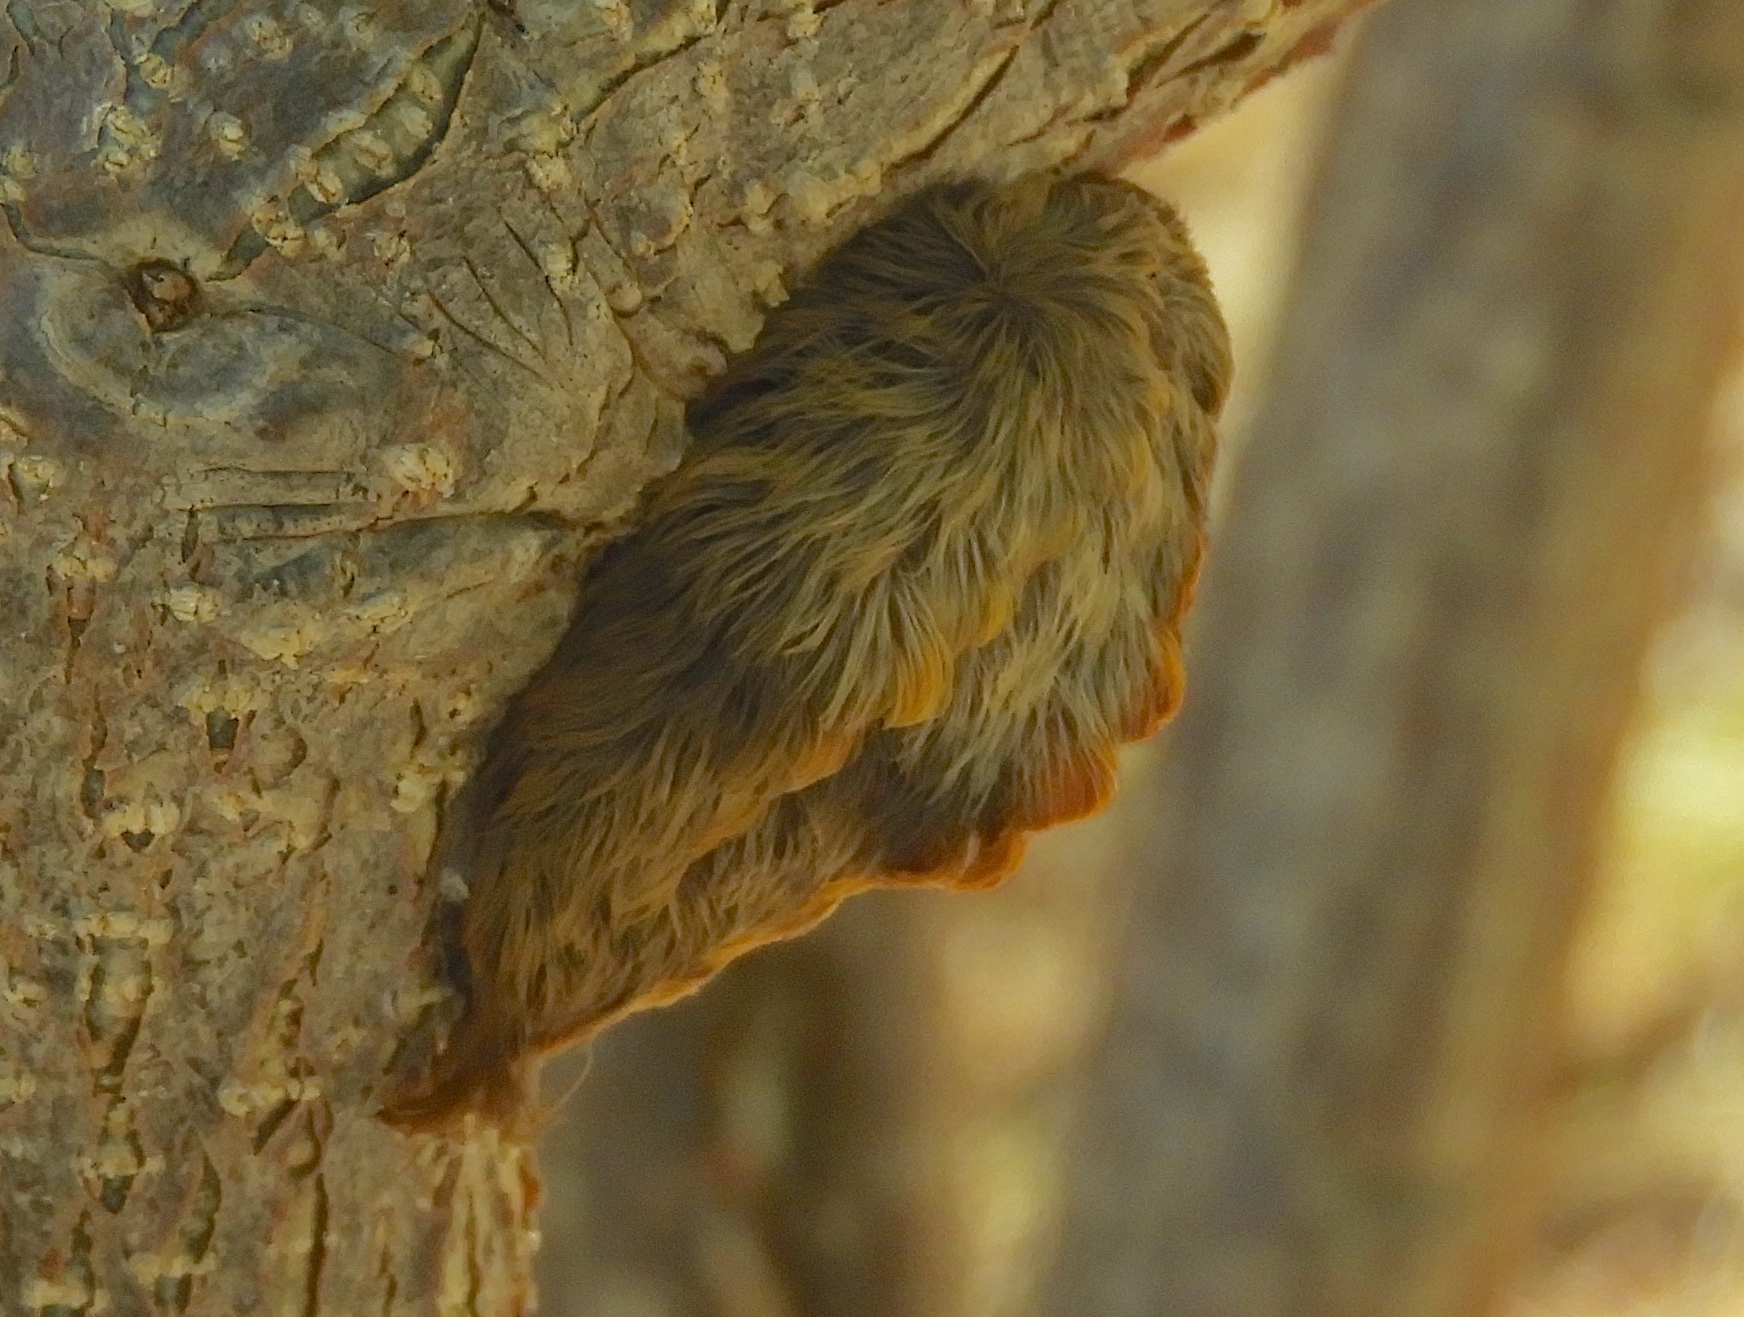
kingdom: Animalia
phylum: Arthropoda
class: Insecta
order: Lepidoptera
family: Megalopygidae
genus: Megalopyge
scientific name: Megalopyge
